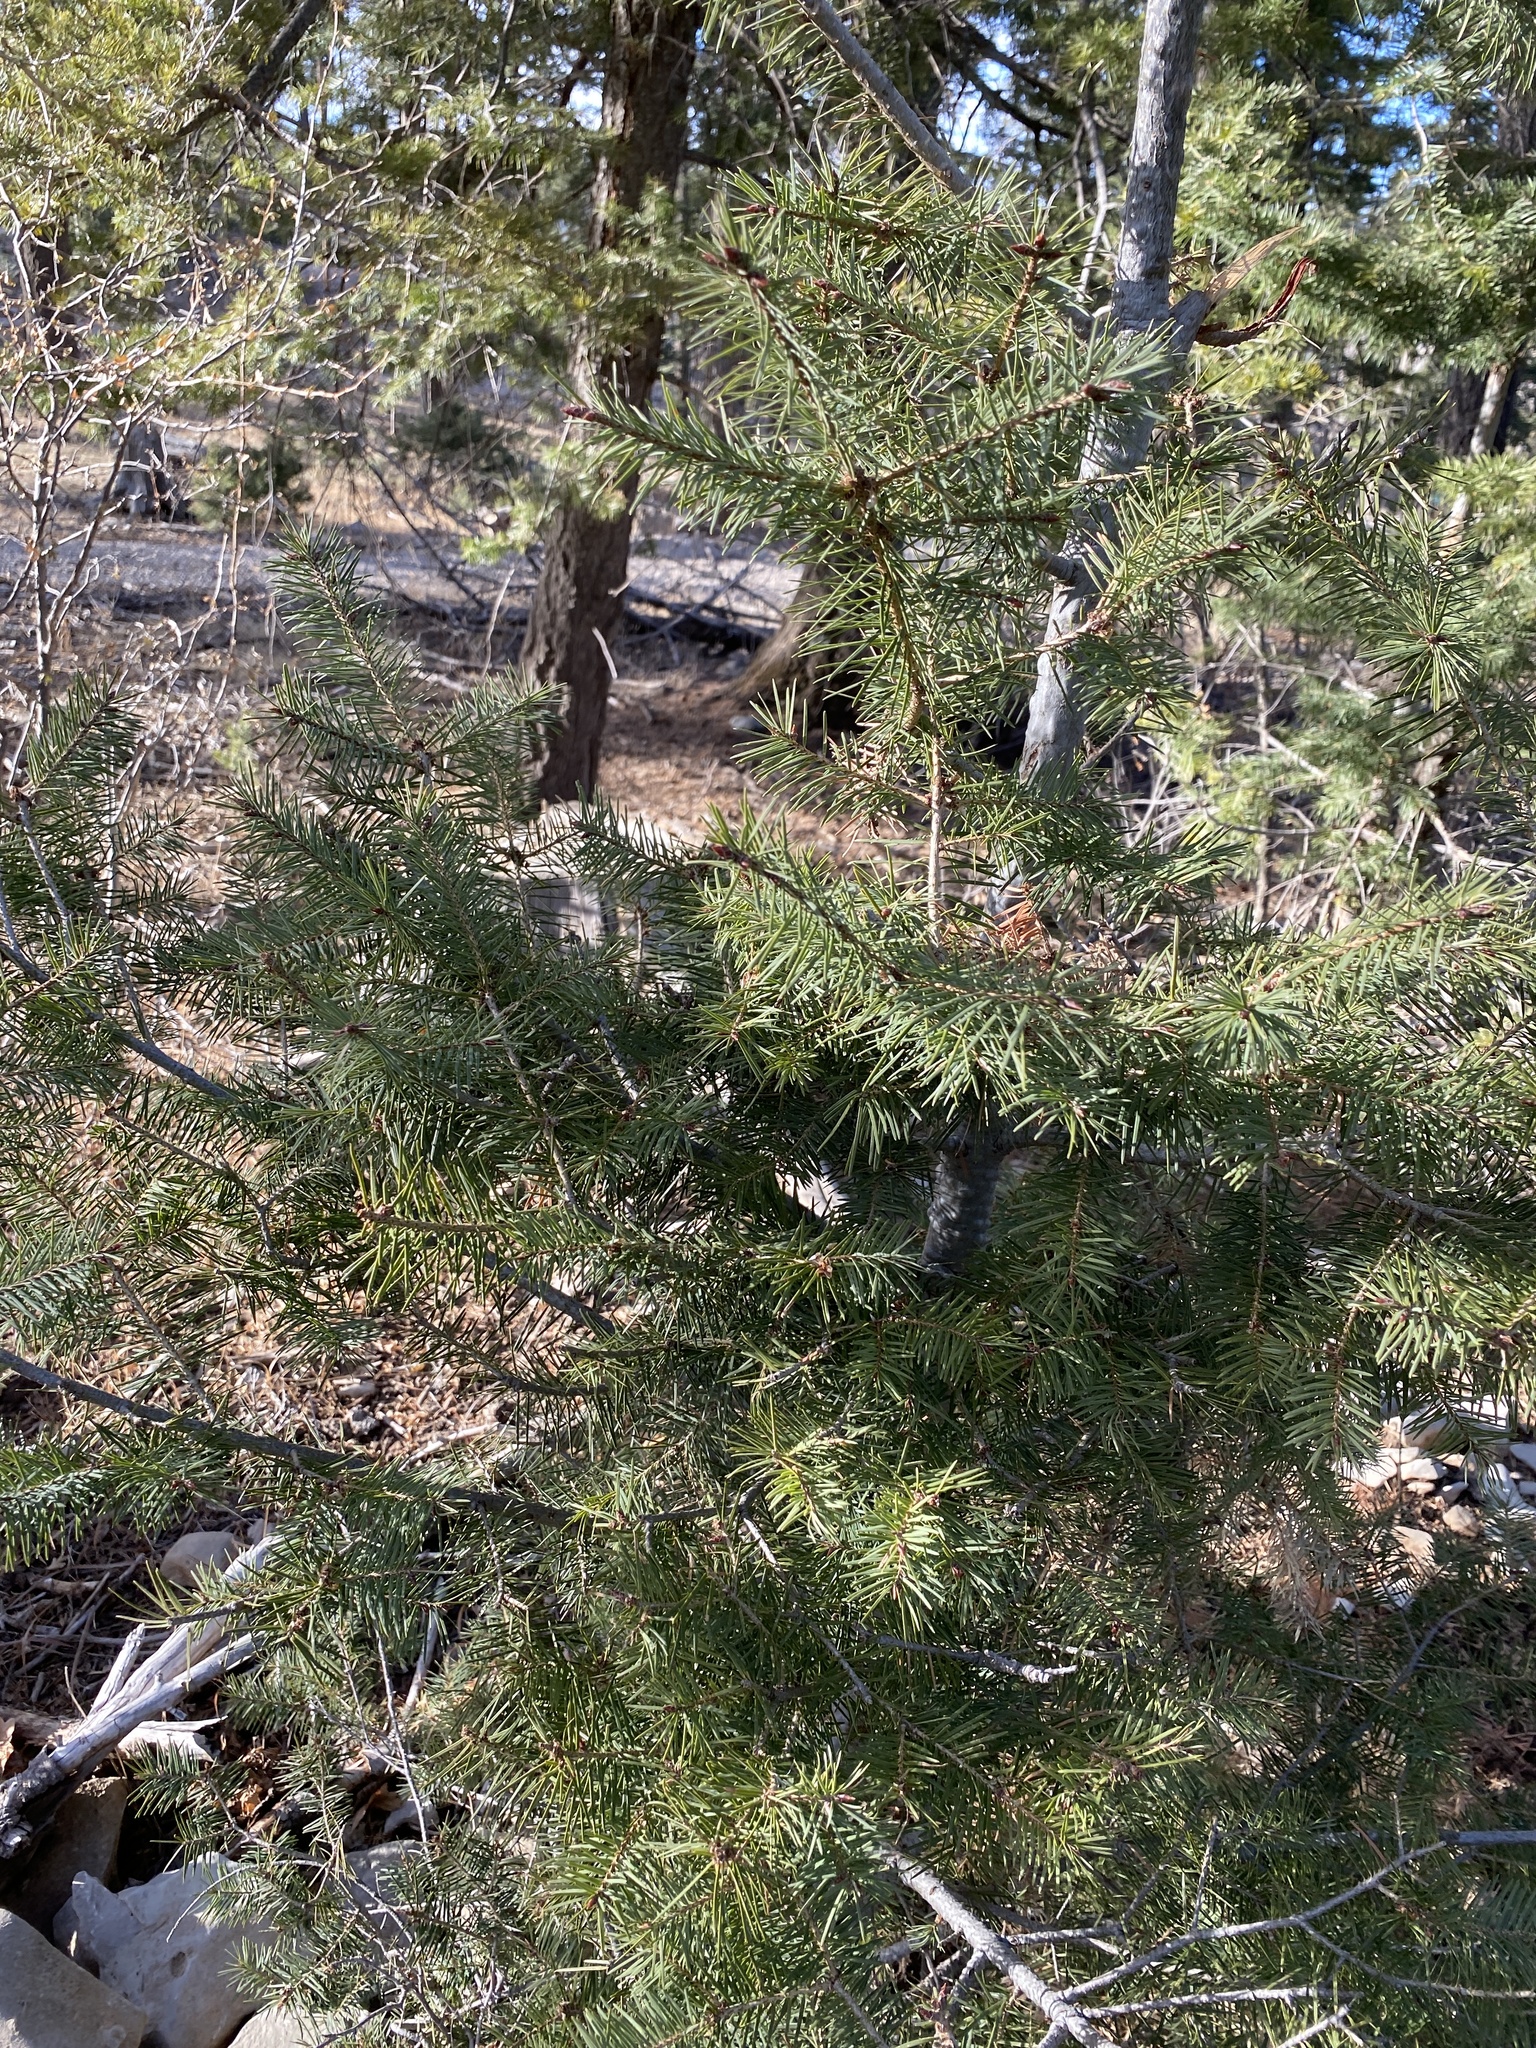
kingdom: Plantae
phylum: Tracheophyta
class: Pinopsida
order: Pinales
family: Pinaceae
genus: Pseudotsuga
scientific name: Pseudotsuga menziesii
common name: Douglas fir
